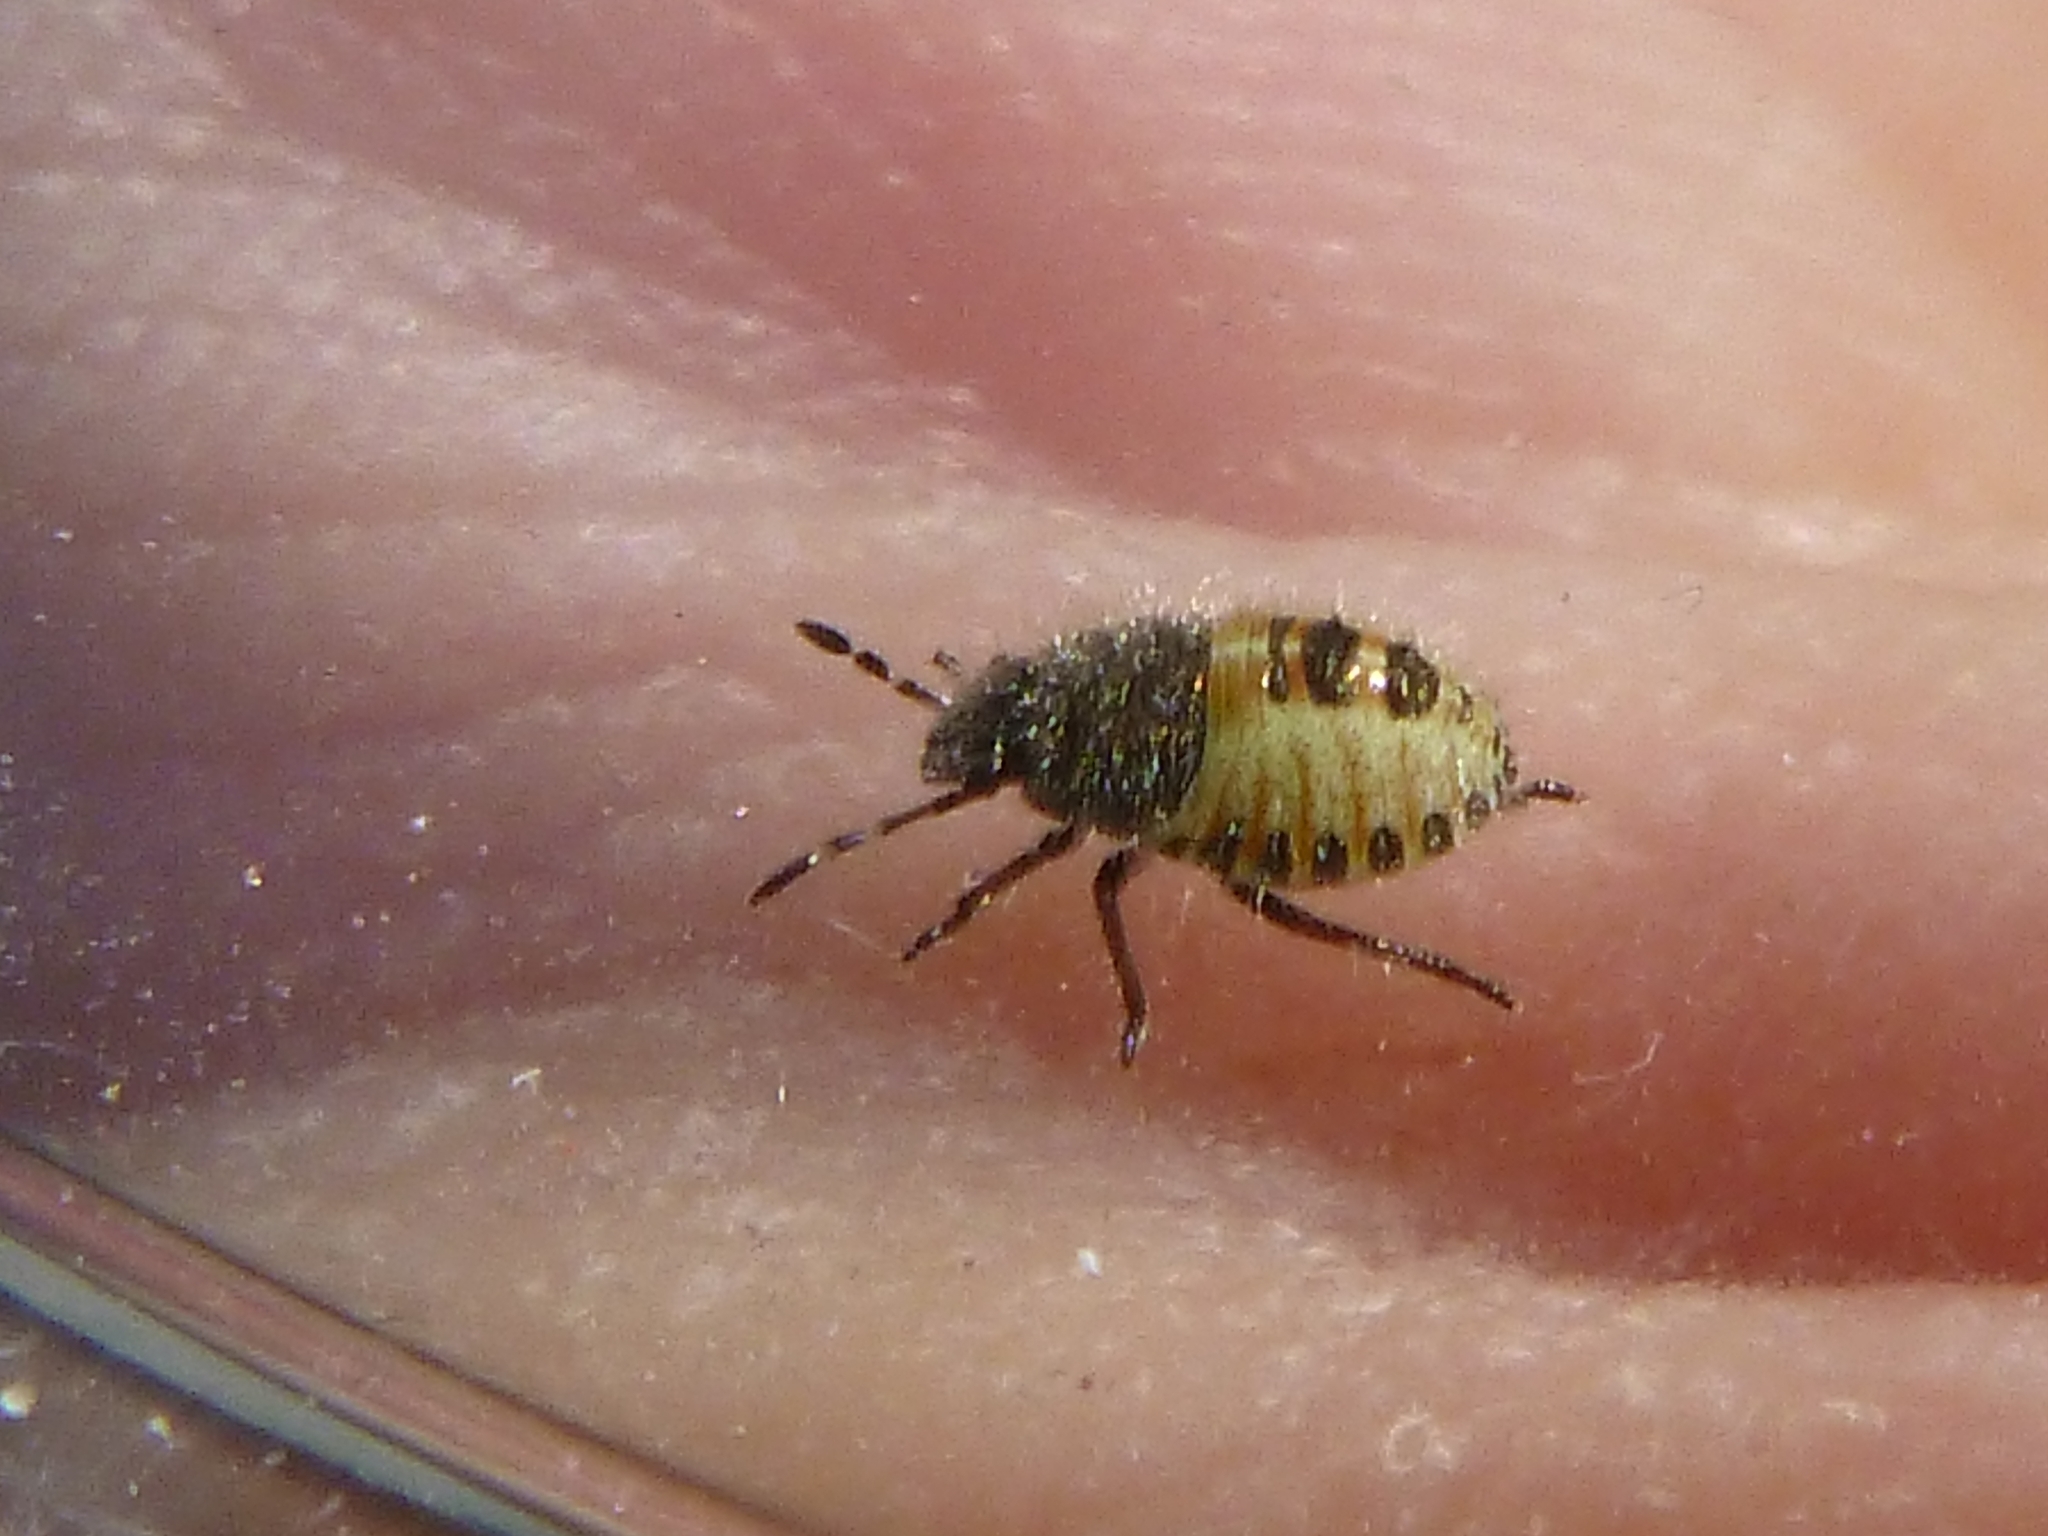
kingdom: Animalia
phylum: Arthropoda
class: Insecta
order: Hemiptera
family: Pentatomidae
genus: Dolycoris
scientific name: Dolycoris baccarum
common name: Sloe bug
